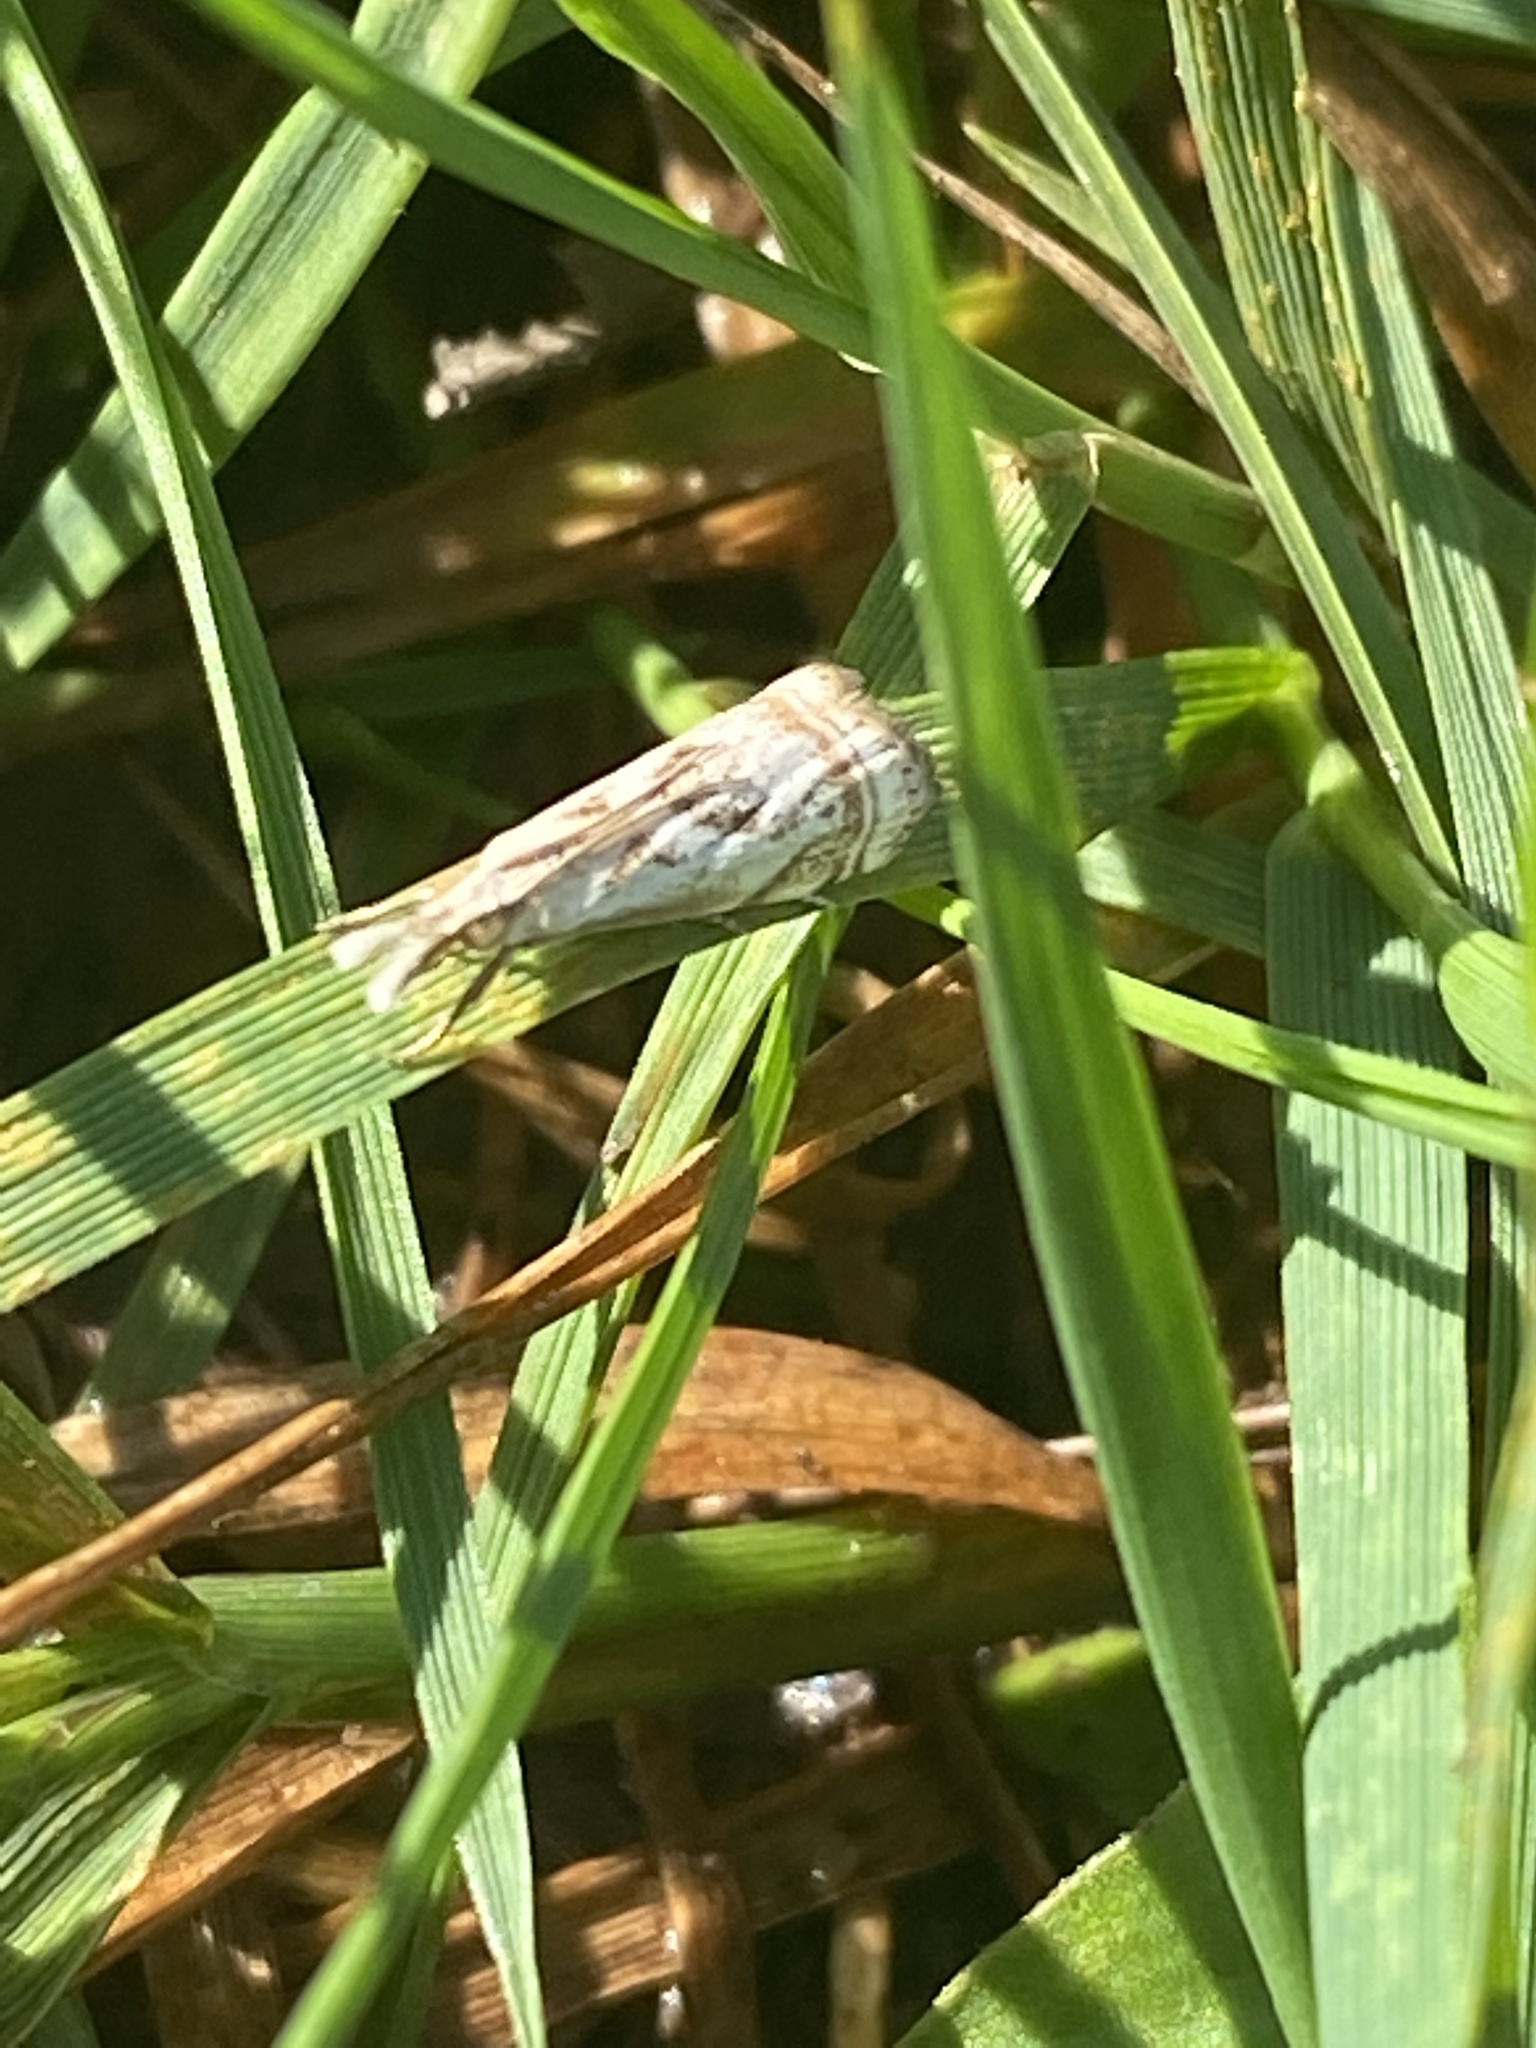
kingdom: Animalia
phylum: Arthropoda
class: Insecta
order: Lepidoptera
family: Crambidae
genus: Microcrambus
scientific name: Microcrambus elegans
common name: Elegant grass-veneer
